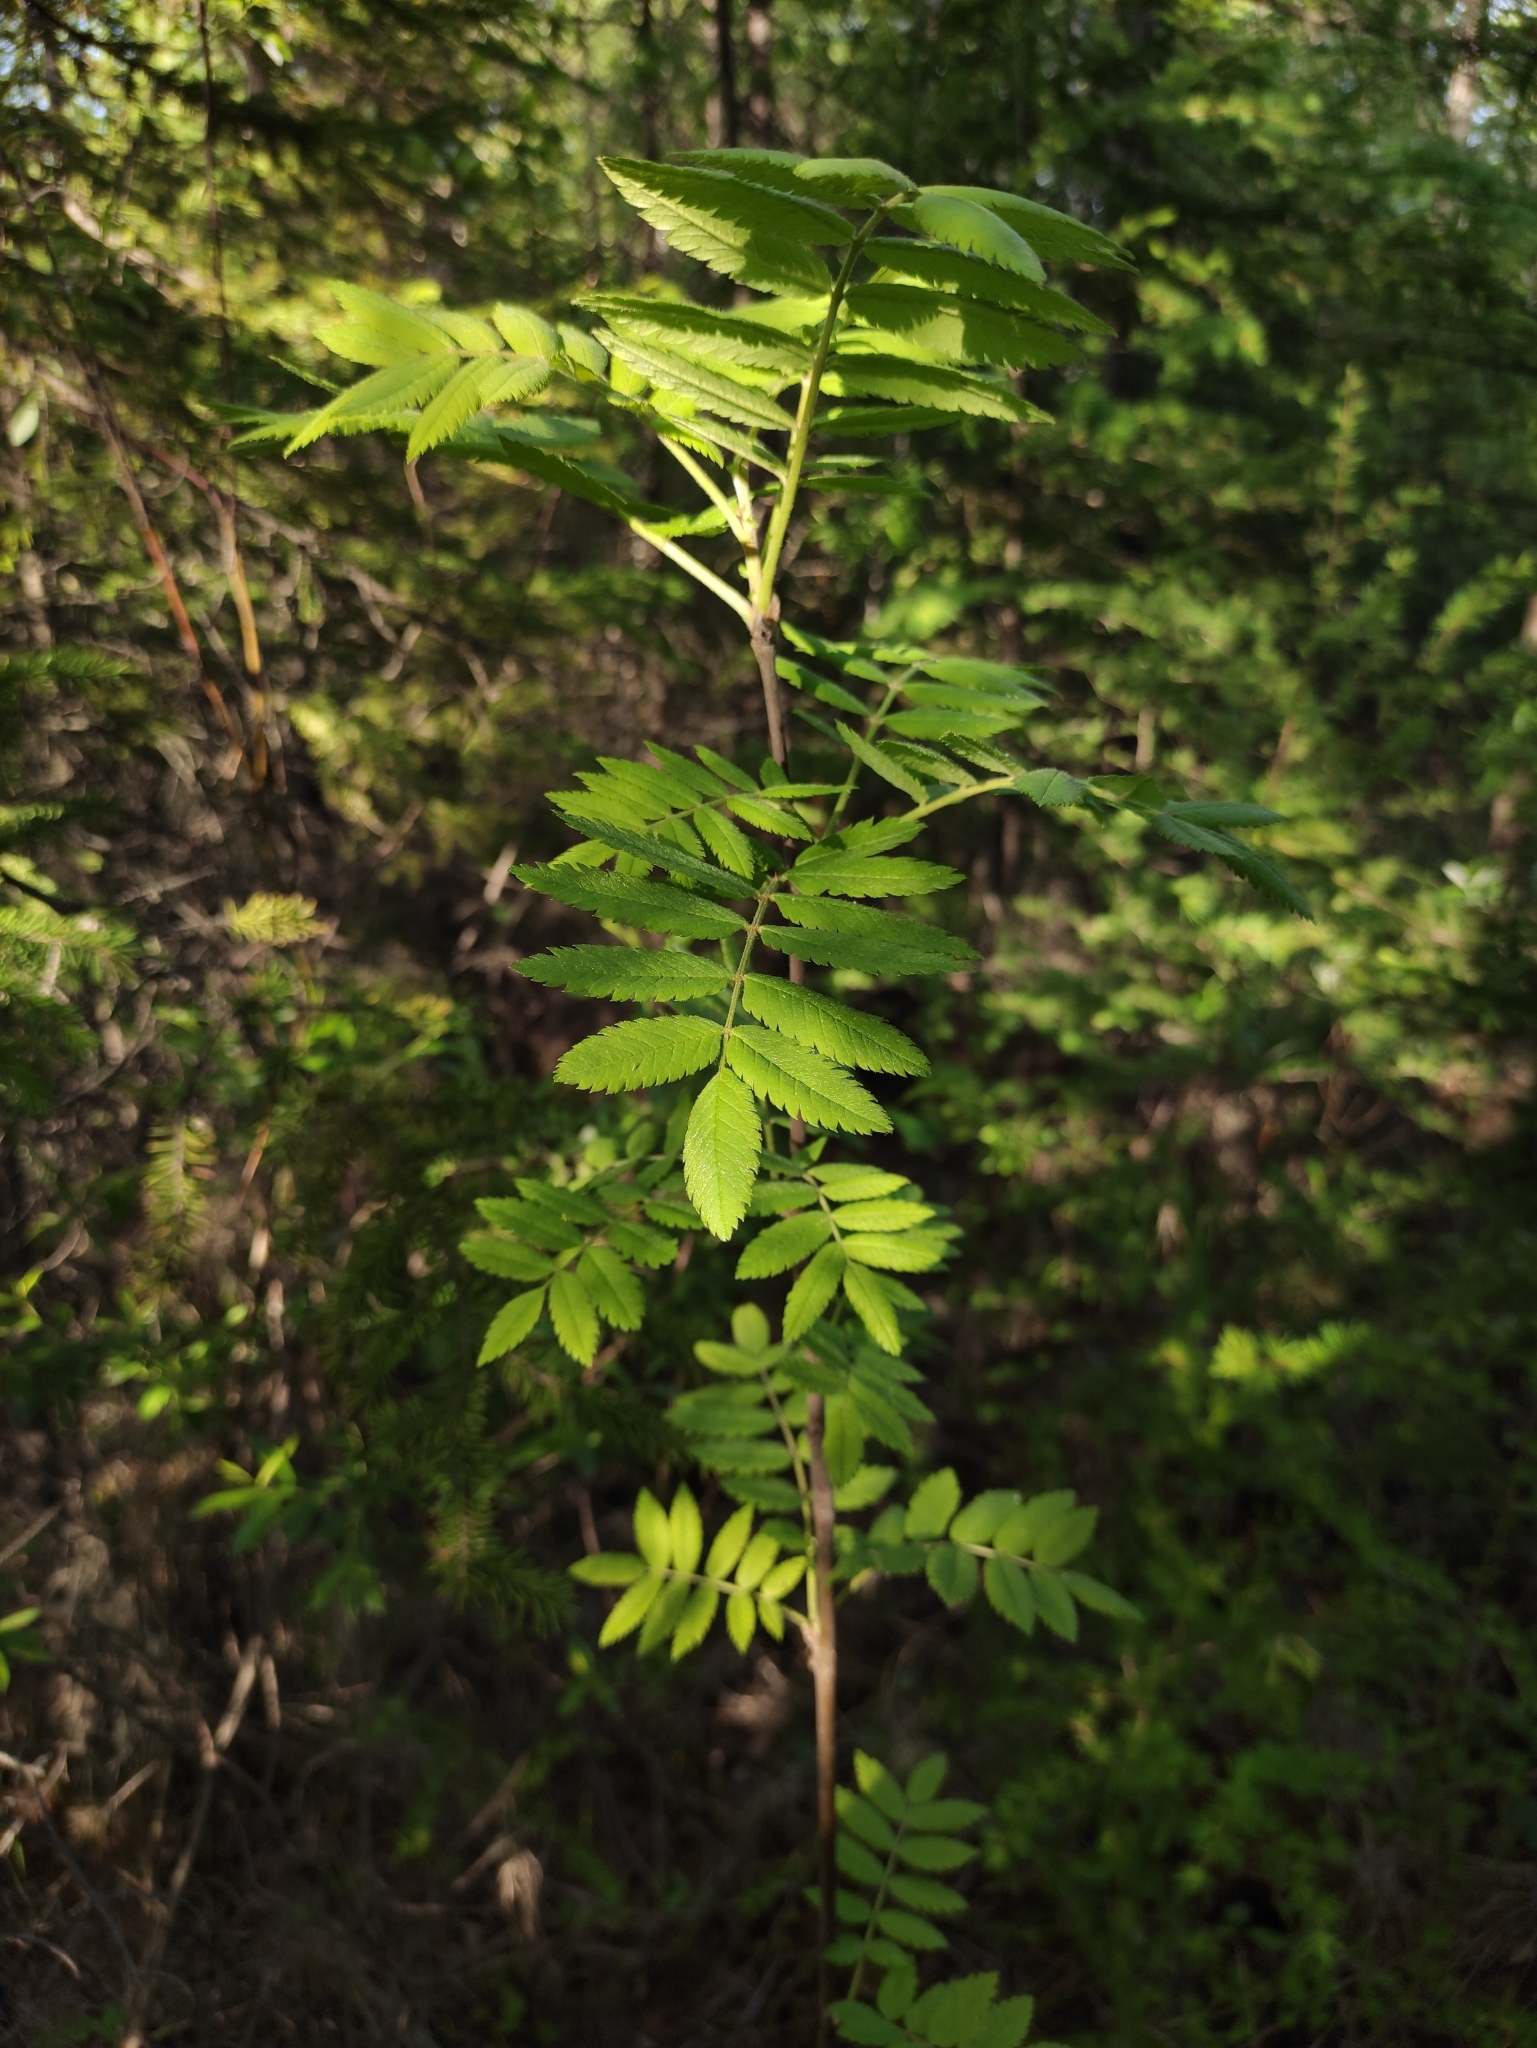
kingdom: Plantae
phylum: Tracheophyta
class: Magnoliopsida
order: Rosales
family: Rosaceae
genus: Sorbus
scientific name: Sorbus aucuparia
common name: Rowan
